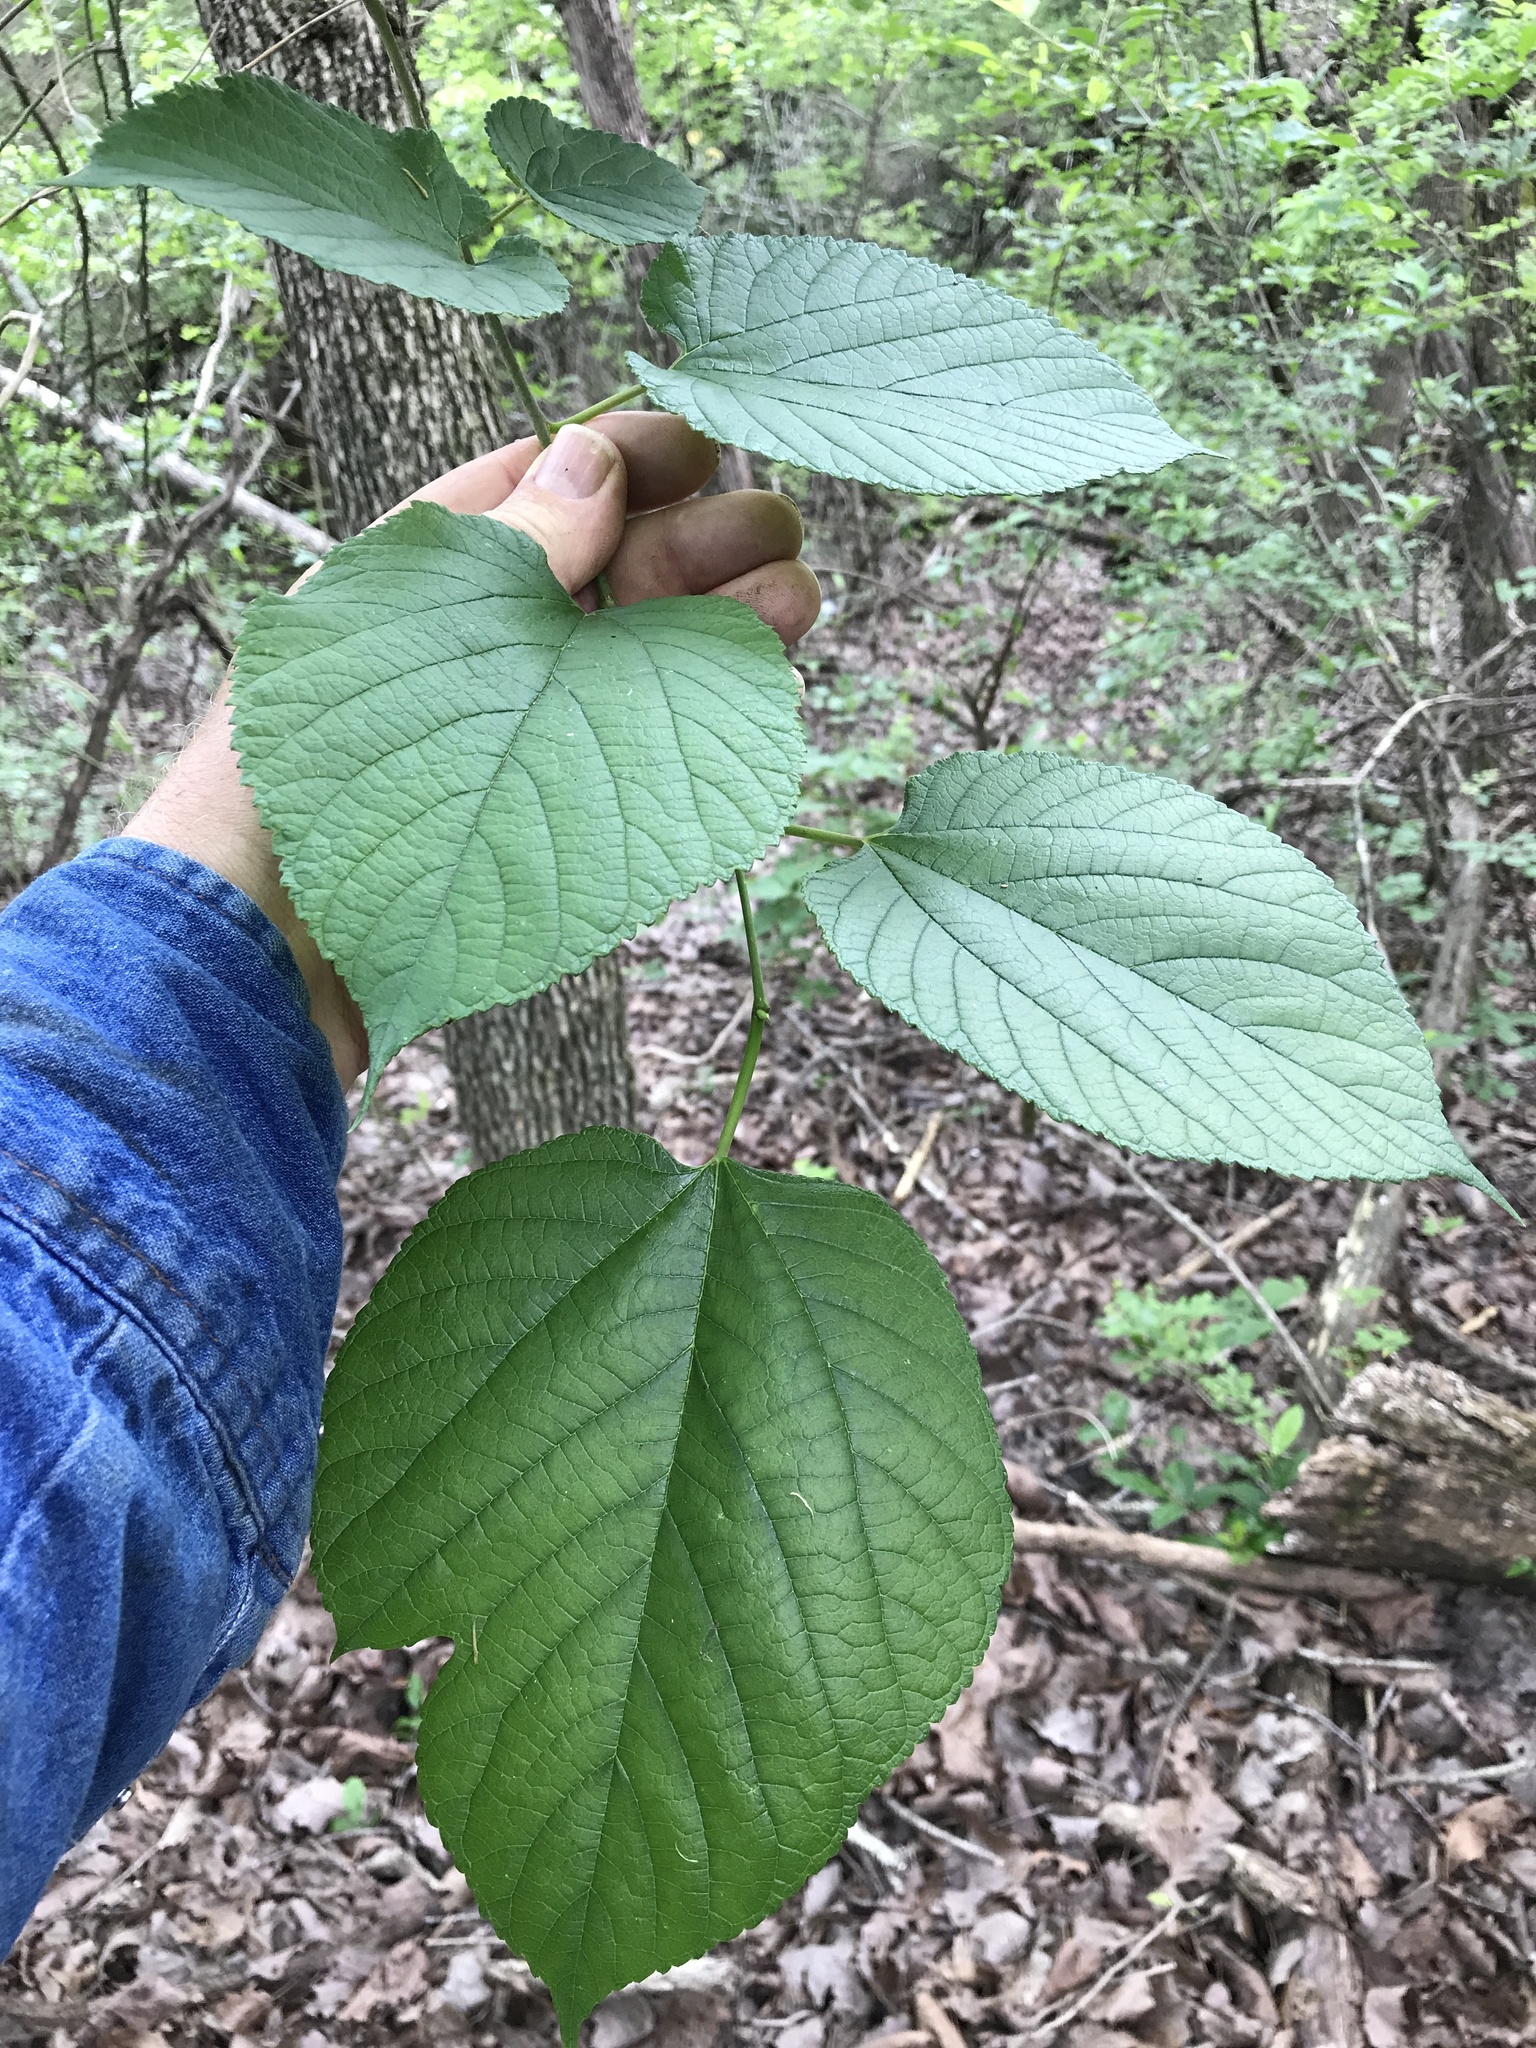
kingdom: Plantae
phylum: Tracheophyta
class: Magnoliopsida
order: Rosales
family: Moraceae
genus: Morus
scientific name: Morus rubra
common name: Red mulberry
